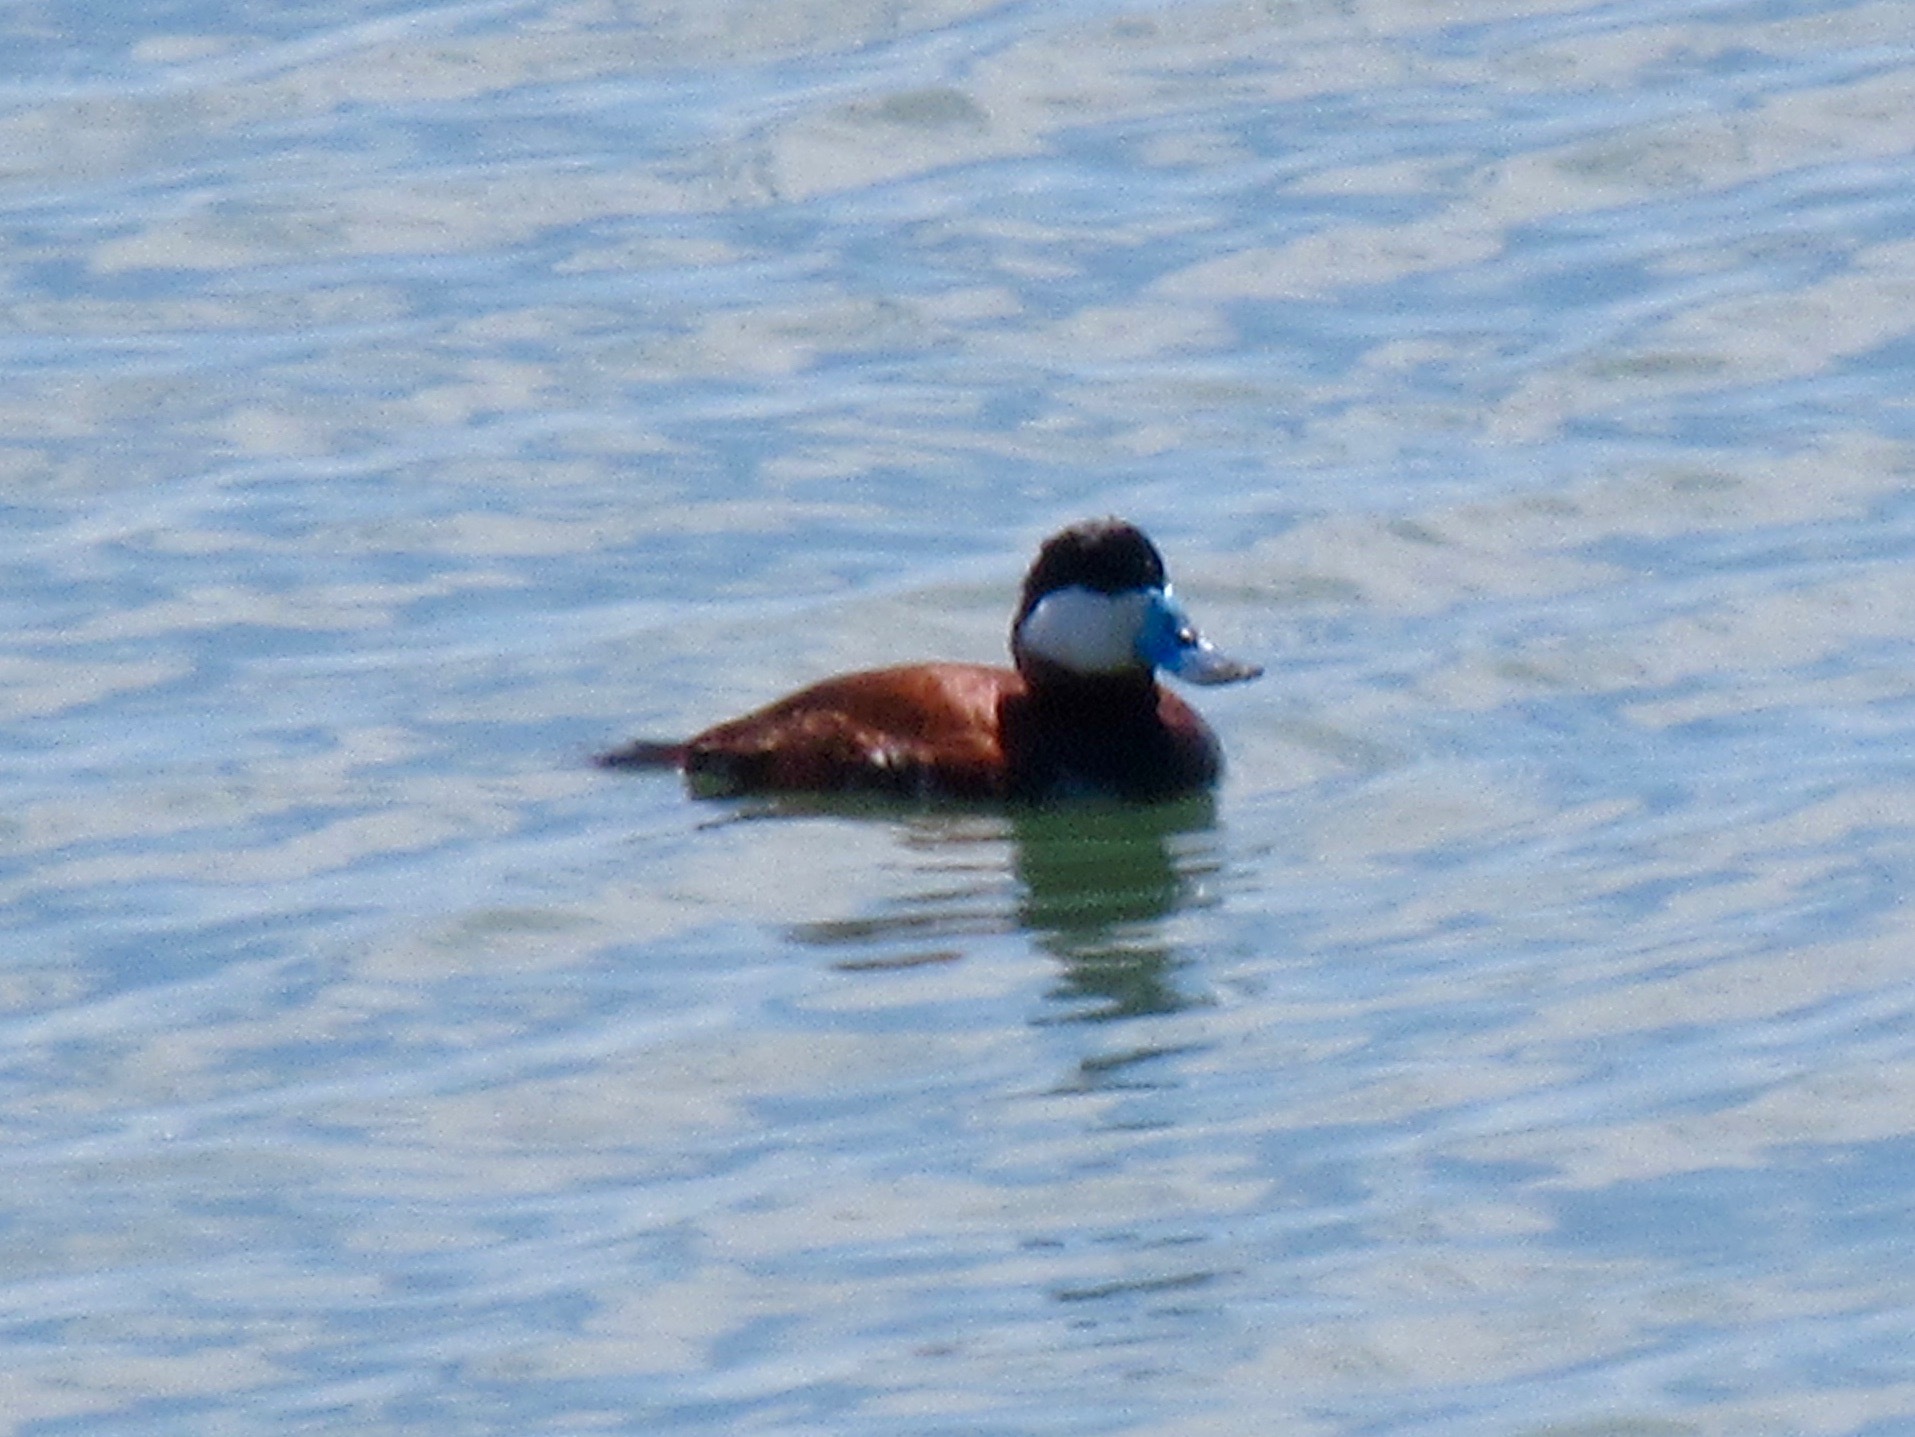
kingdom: Animalia
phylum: Chordata
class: Aves
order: Anseriformes
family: Anatidae
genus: Oxyura
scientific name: Oxyura jamaicensis
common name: Ruddy duck
